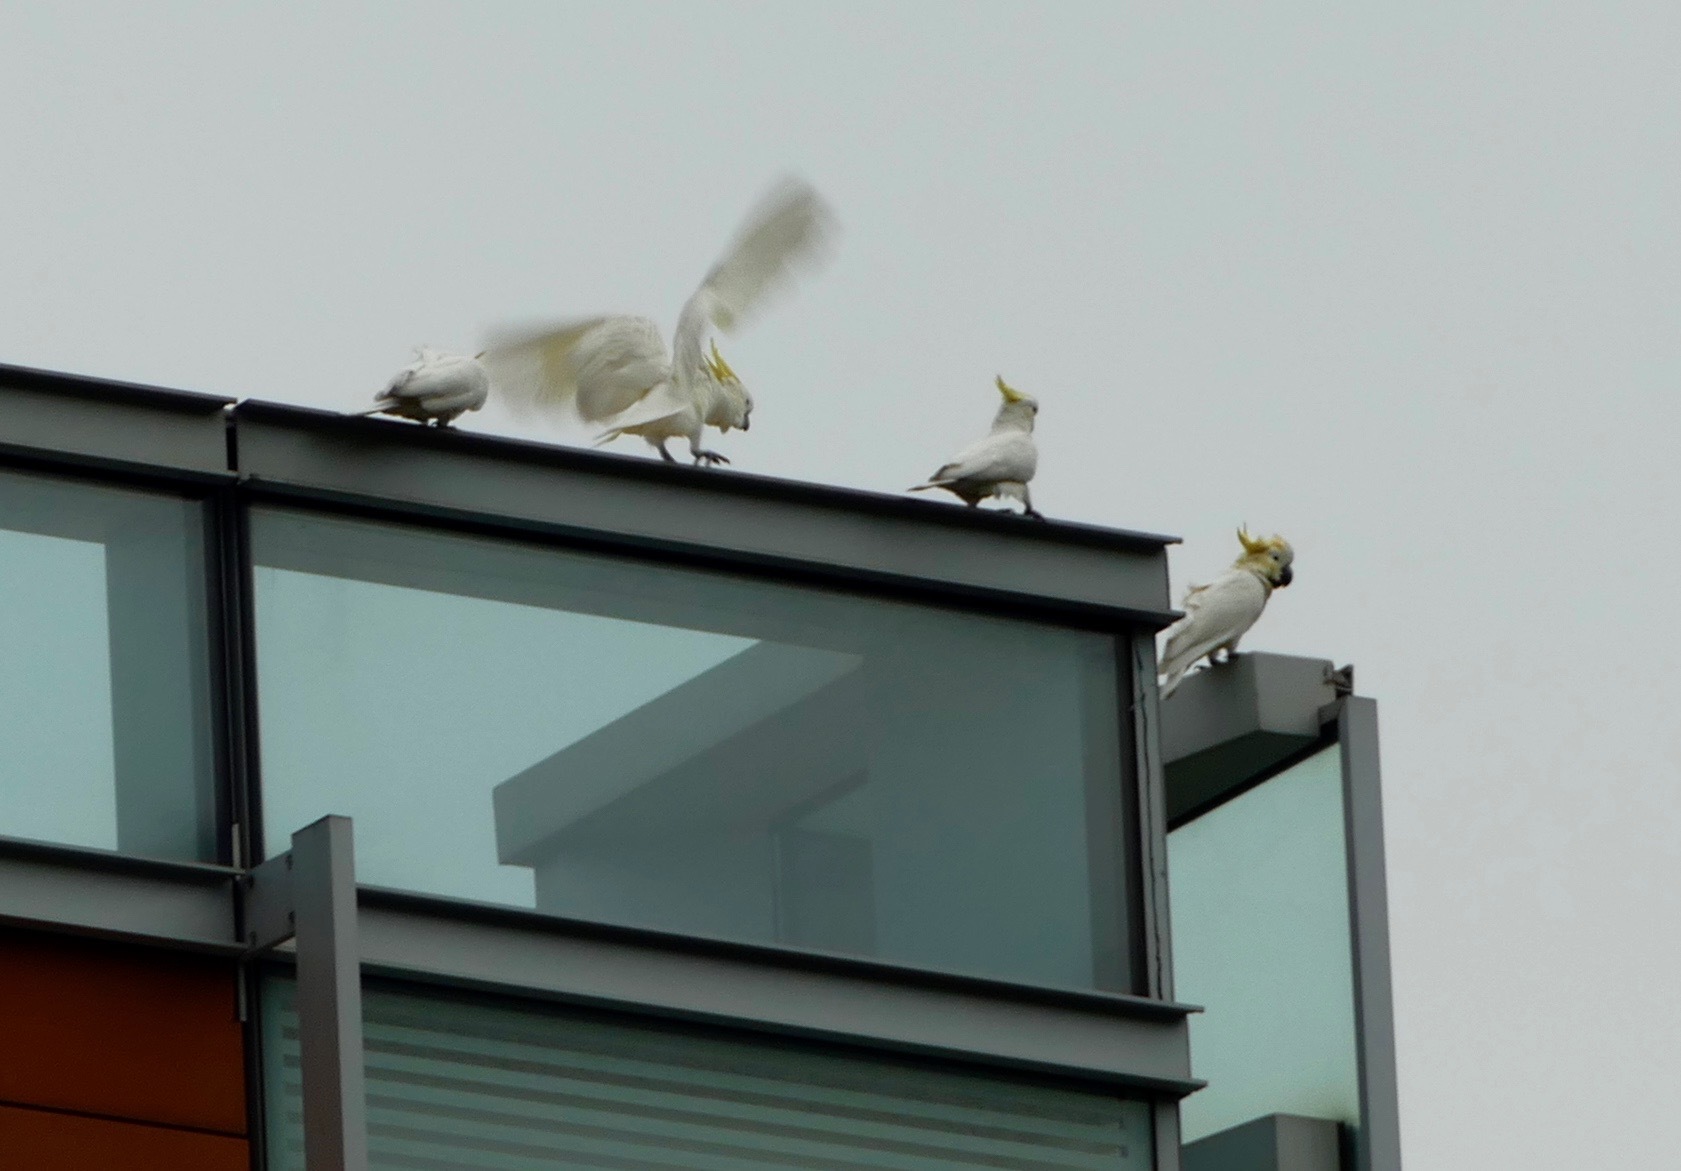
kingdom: Animalia
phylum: Chordata
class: Aves
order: Psittaciformes
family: Psittacidae
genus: Cacatua
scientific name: Cacatua sulphurea
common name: Yellow-crested cockatoo
